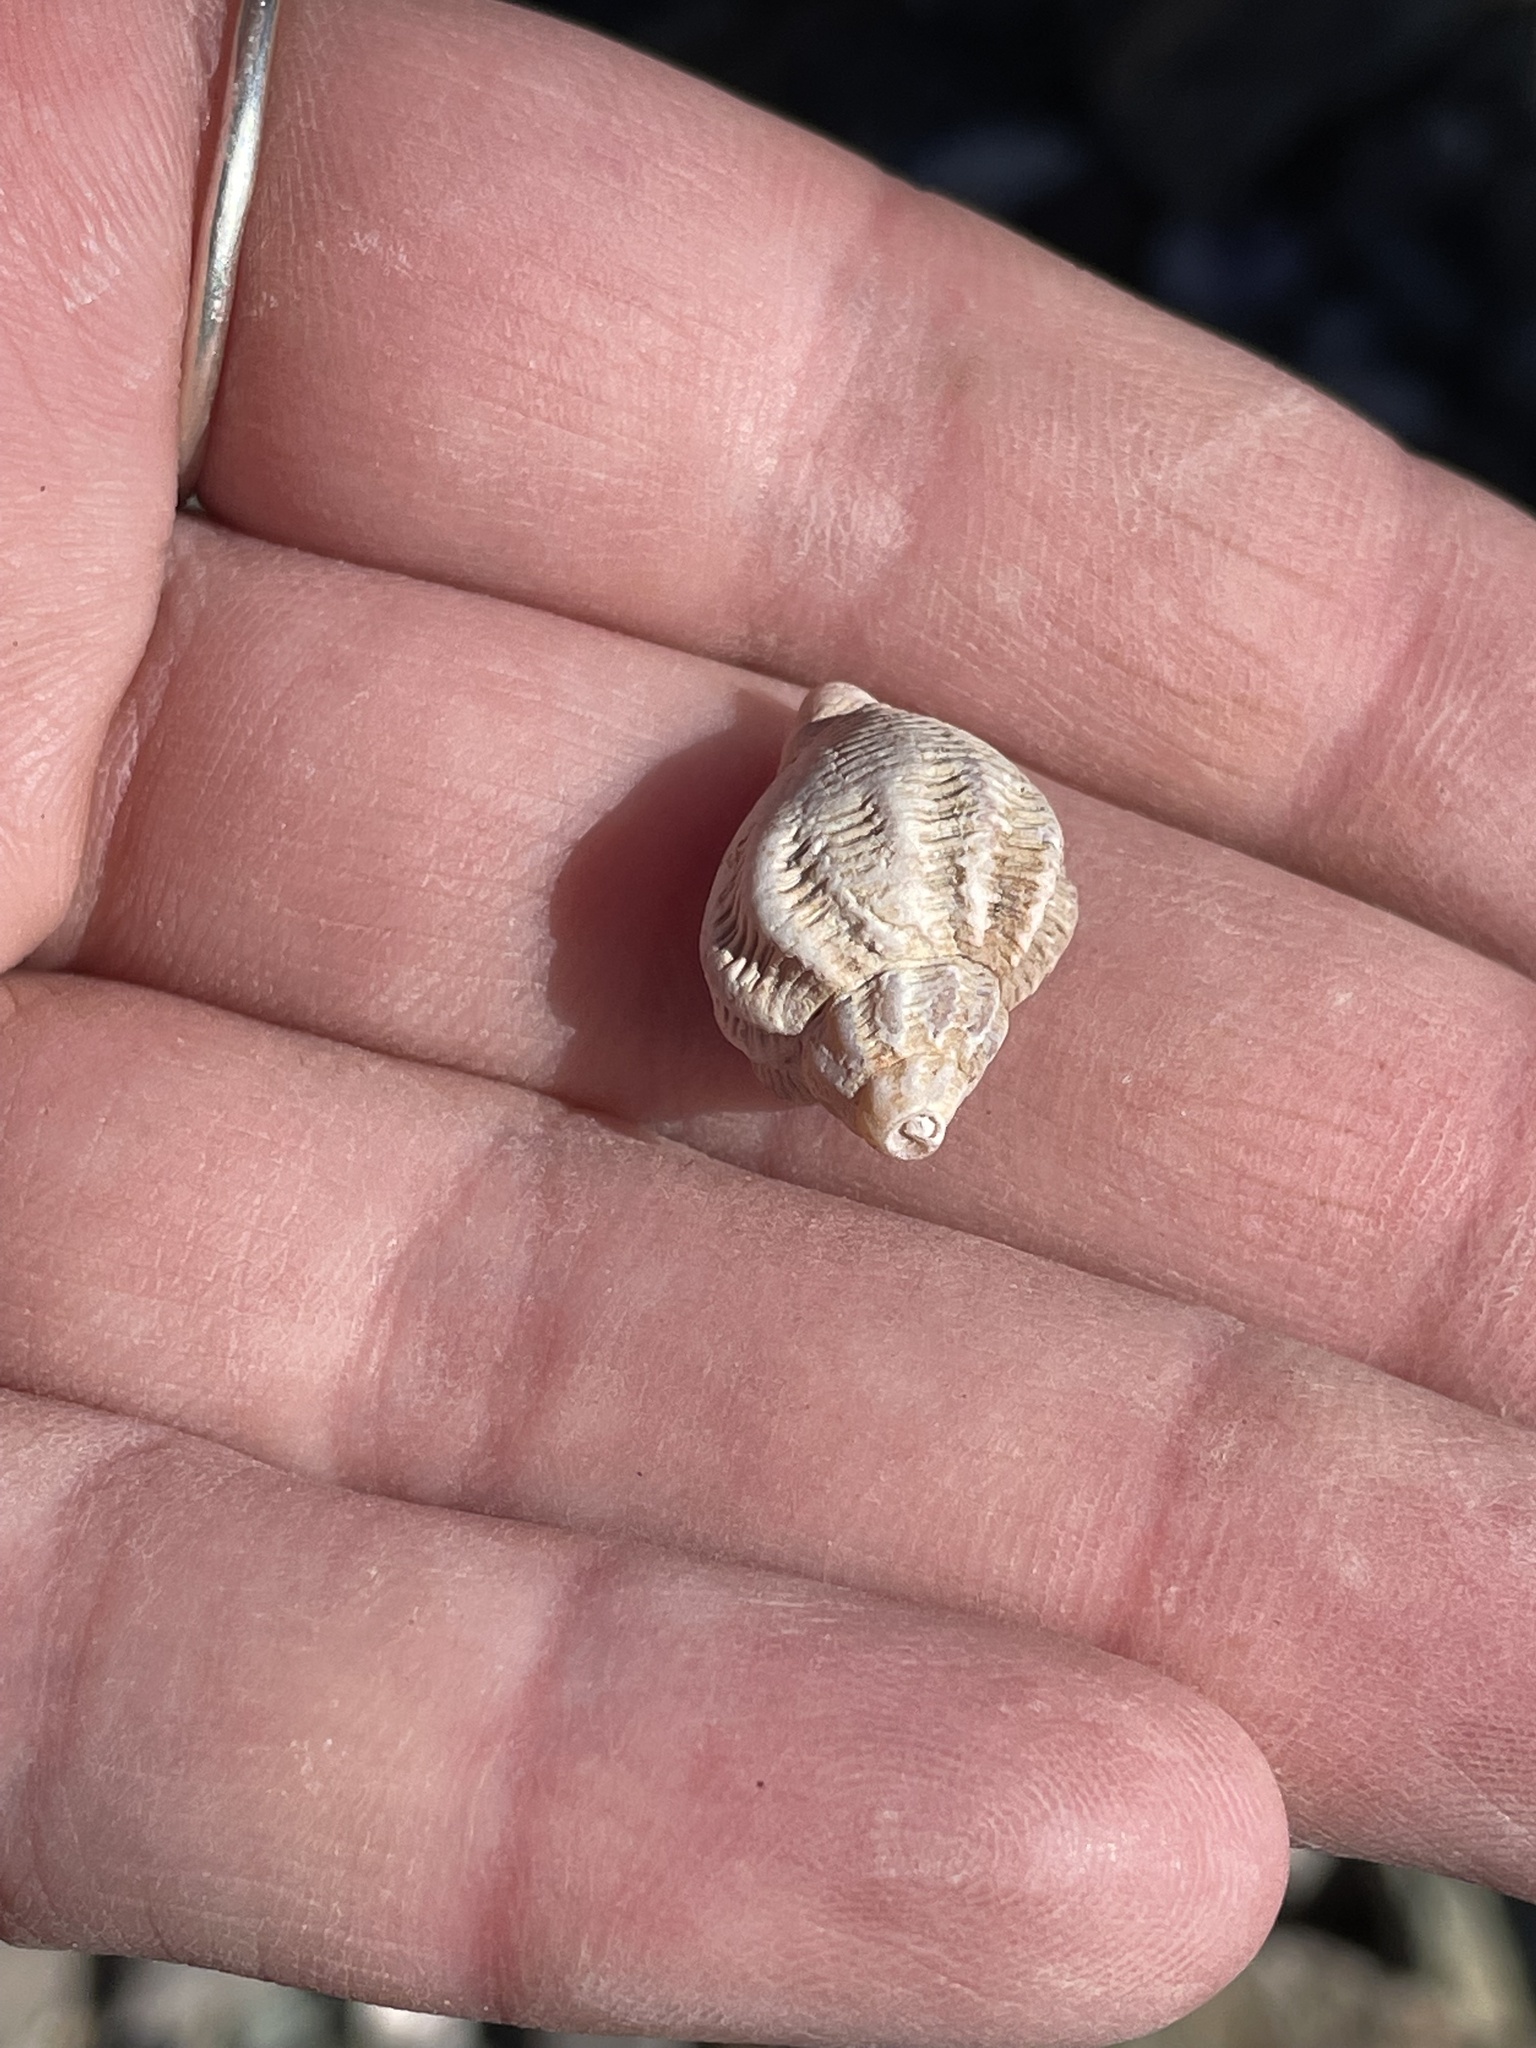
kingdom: Animalia
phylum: Mollusca
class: Gastropoda
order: Neogastropoda
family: Buccinidae
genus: Buccinum
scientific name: Buccinum undatum
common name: Common whelk
